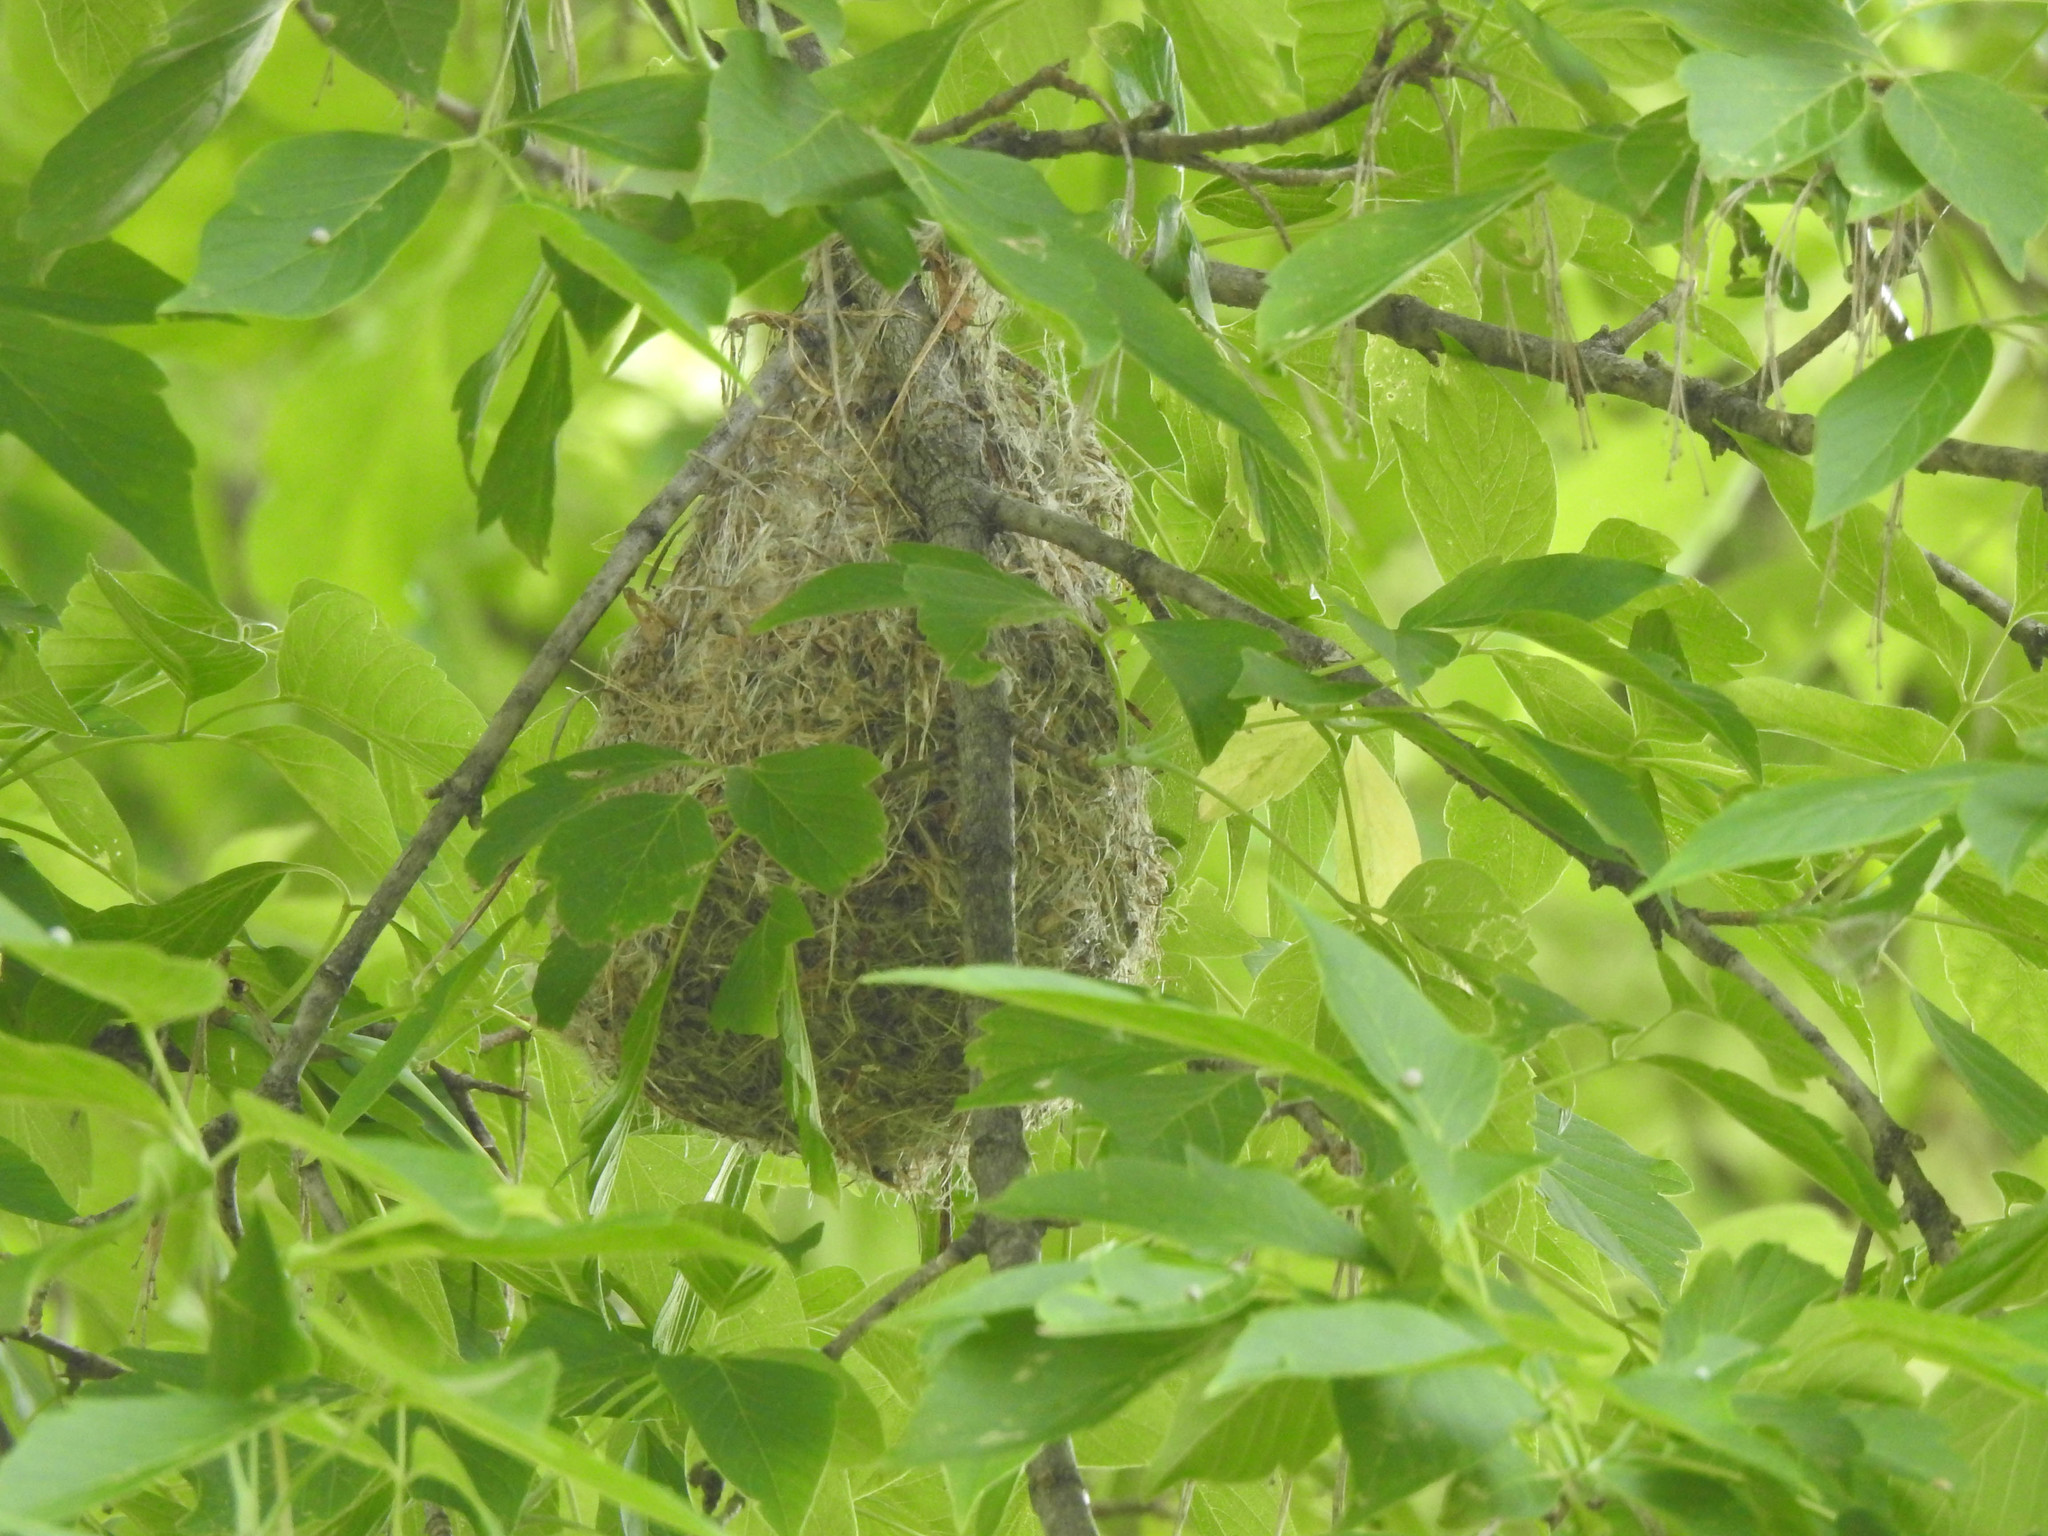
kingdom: Animalia
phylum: Chordata
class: Aves
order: Passeriformes
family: Icteridae
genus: Icterus
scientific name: Icterus galbula
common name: Baltimore oriole
